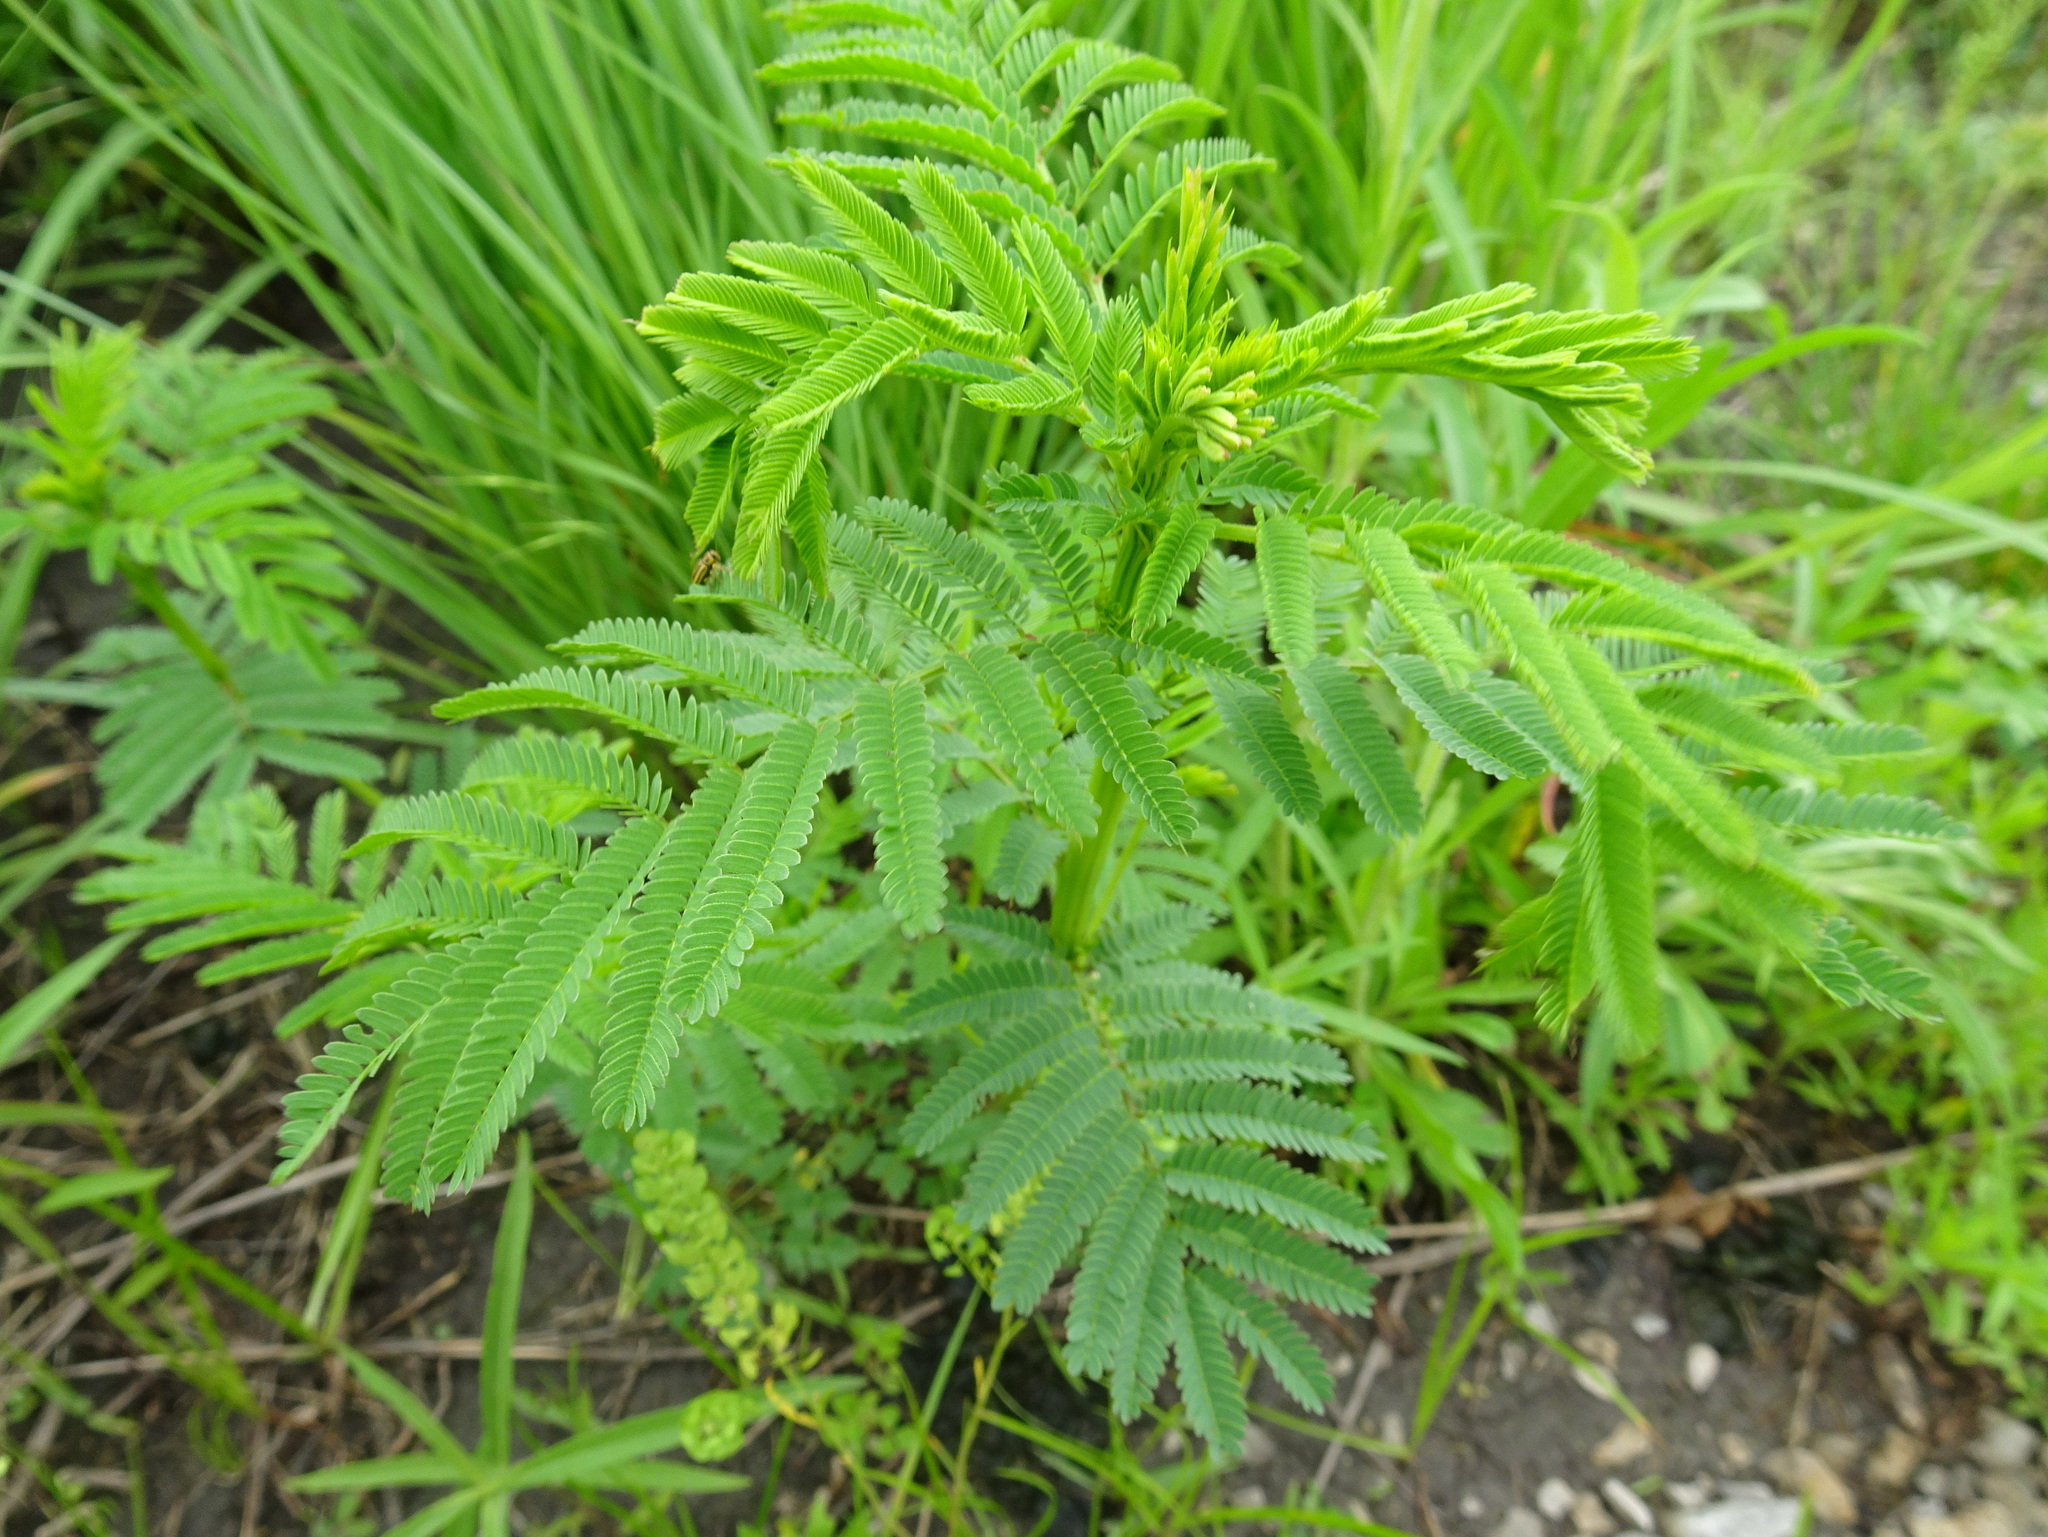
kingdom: Plantae
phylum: Tracheophyta
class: Magnoliopsida
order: Fabales
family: Fabaceae
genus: Desmanthus
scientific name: Desmanthus illinoensis
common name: Illinois bundle-flower
